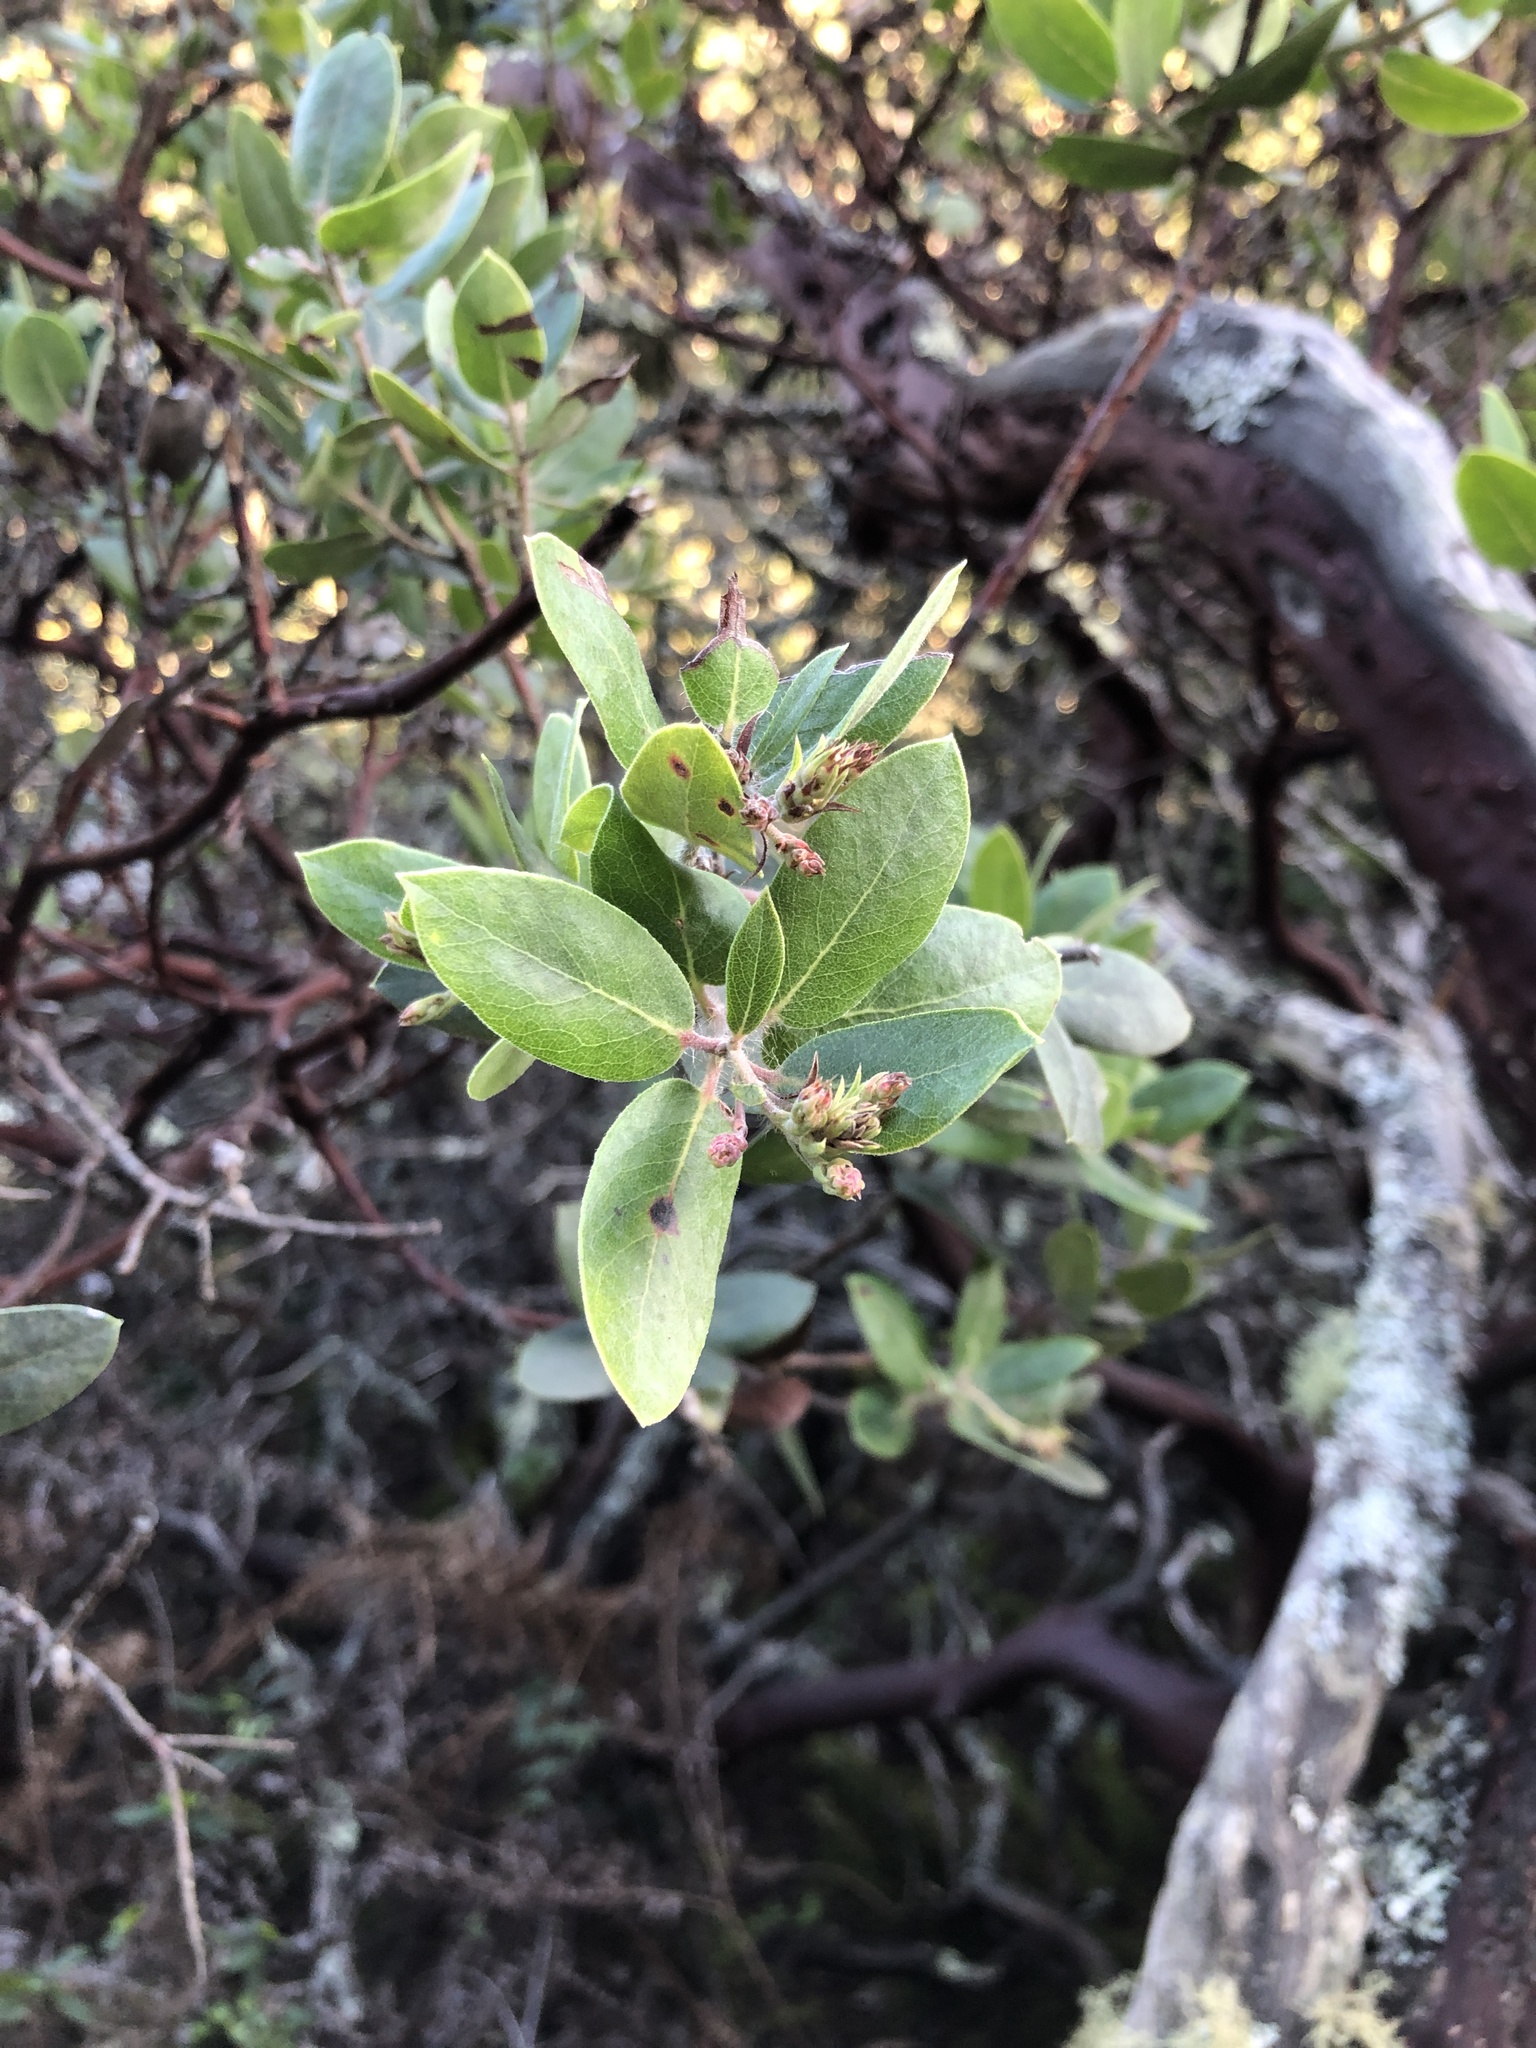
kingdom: Plantae
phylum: Tracheophyta
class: Magnoliopsida
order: Ericales
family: Ericaceae
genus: Arctostaphylos
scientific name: Arctostaphylos crustacea
